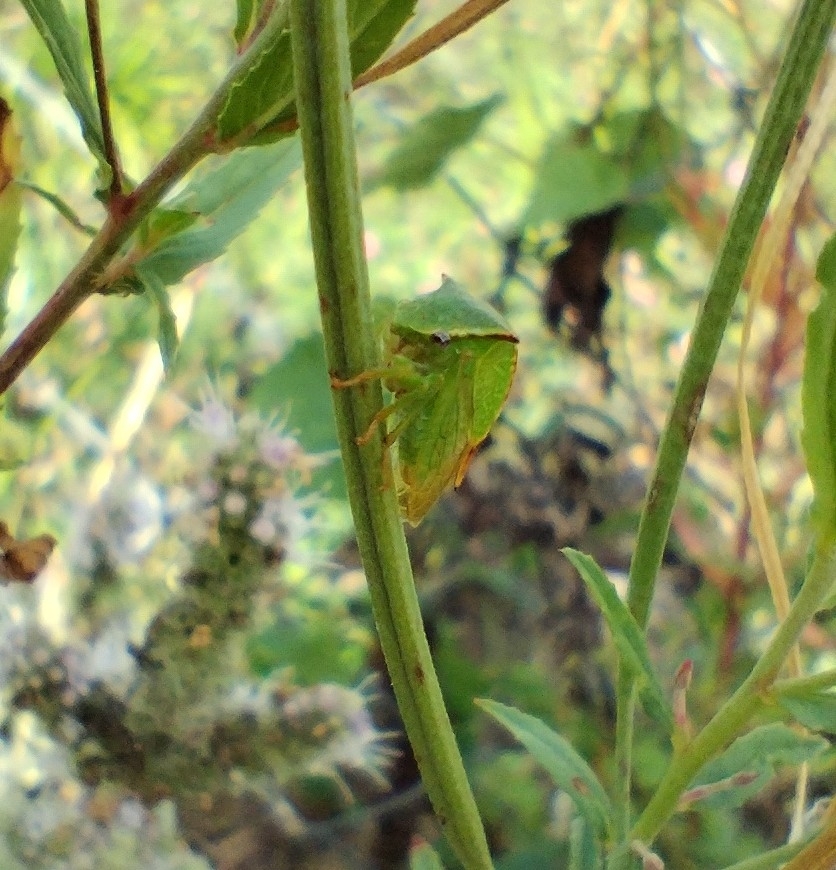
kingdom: Animalia
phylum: Arthropoda
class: Insecta
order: Hemiptera
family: Membracidae
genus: Stictocephala
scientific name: Stictocephala bisonia
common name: American buffalo treehopper
